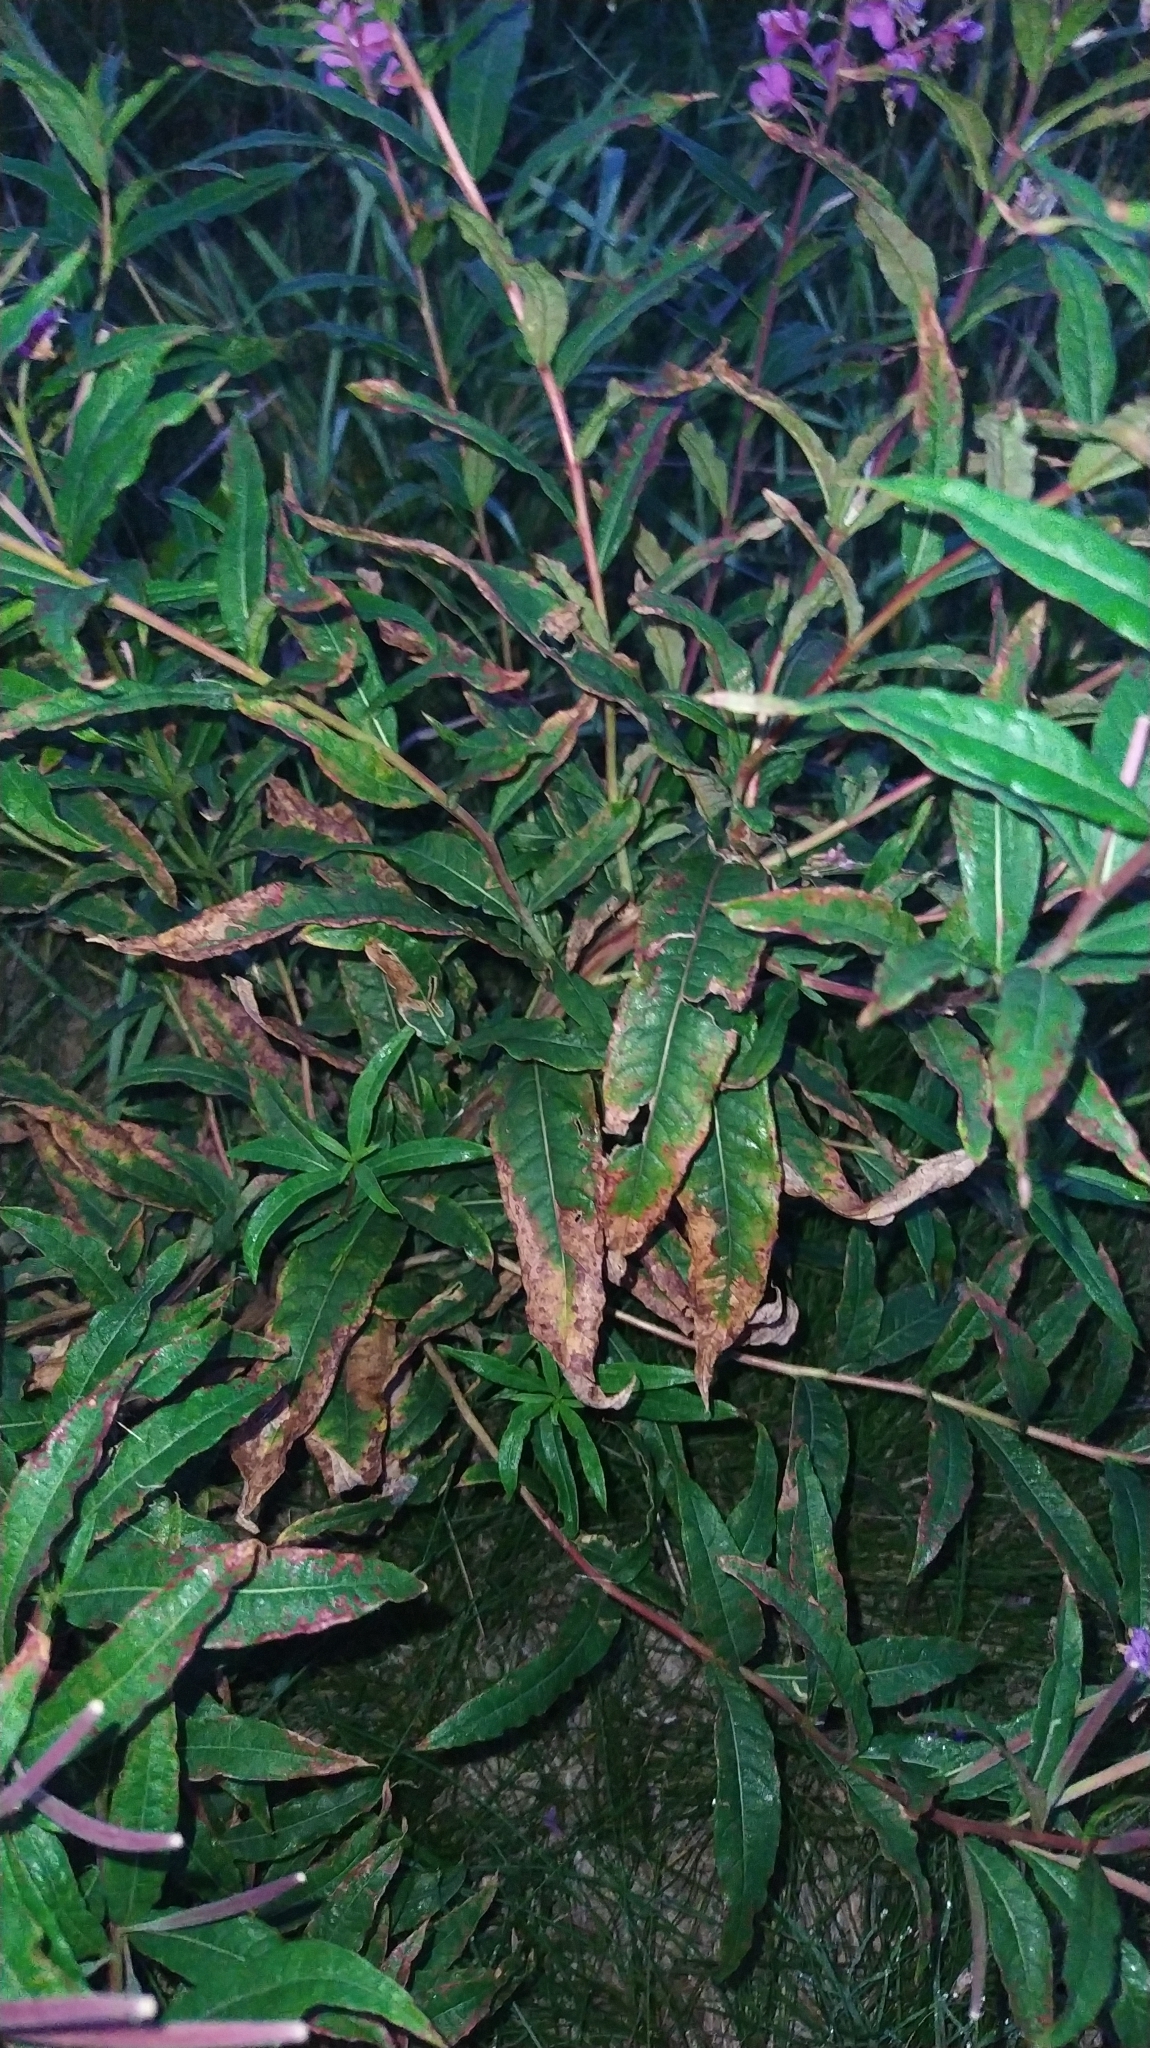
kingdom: Plantae
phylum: Tracheophyta
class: Magnoliopsida
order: Myrtales
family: Onagraceae
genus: Chamaenerion
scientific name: Chamaenerion angustifolium
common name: Fireweed
